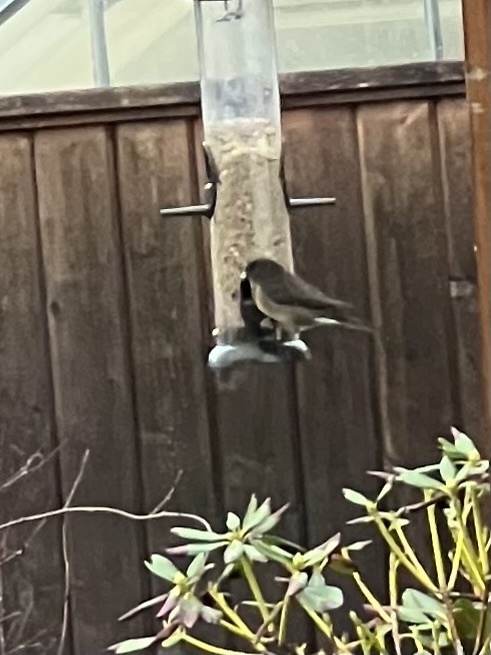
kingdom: Animalia
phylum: Chordata
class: Aves
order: Passeriformes
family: Passerellidae
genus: Junco
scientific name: Junco hyemalis
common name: Dark-eyed junco
